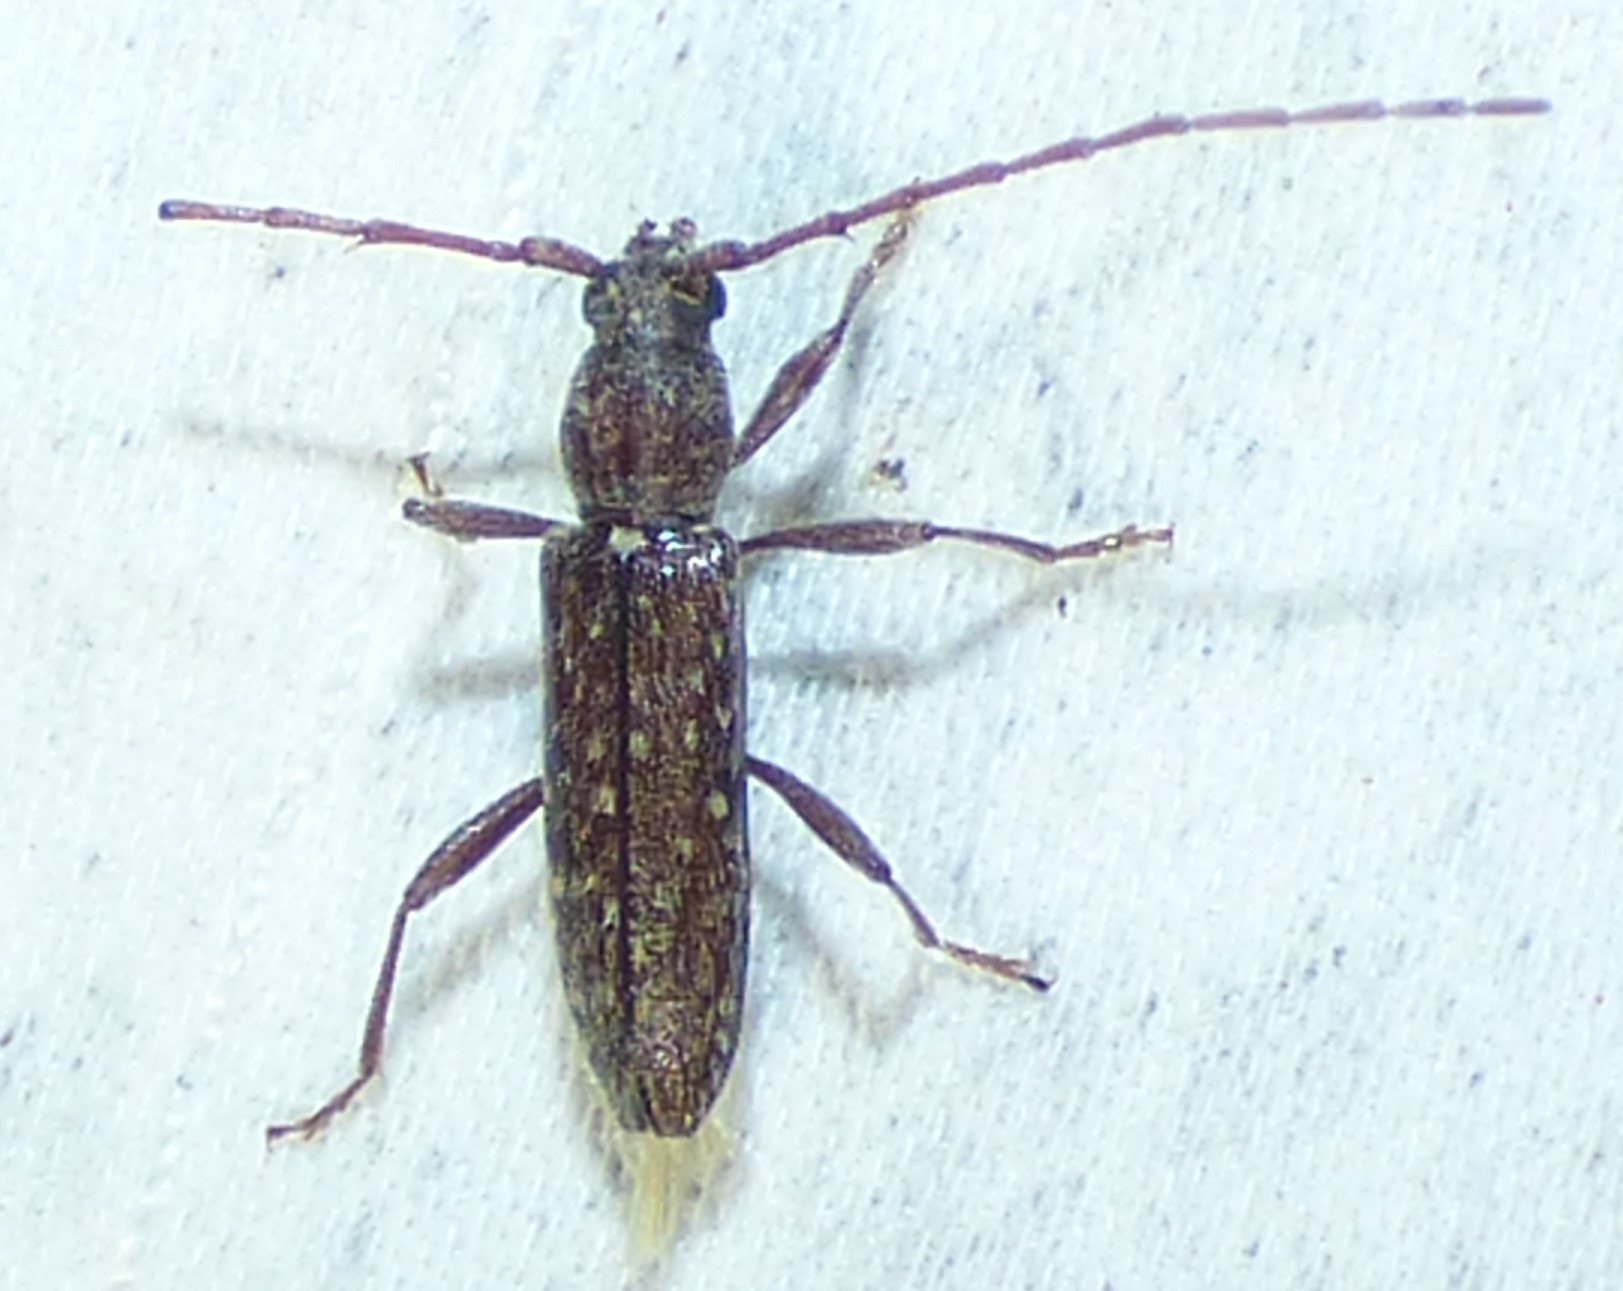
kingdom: Animalia
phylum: Arthropoda
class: Insecta
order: Coleoptera
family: Cerambycidae
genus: Anelaphus
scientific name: Anelaphus pumilus
